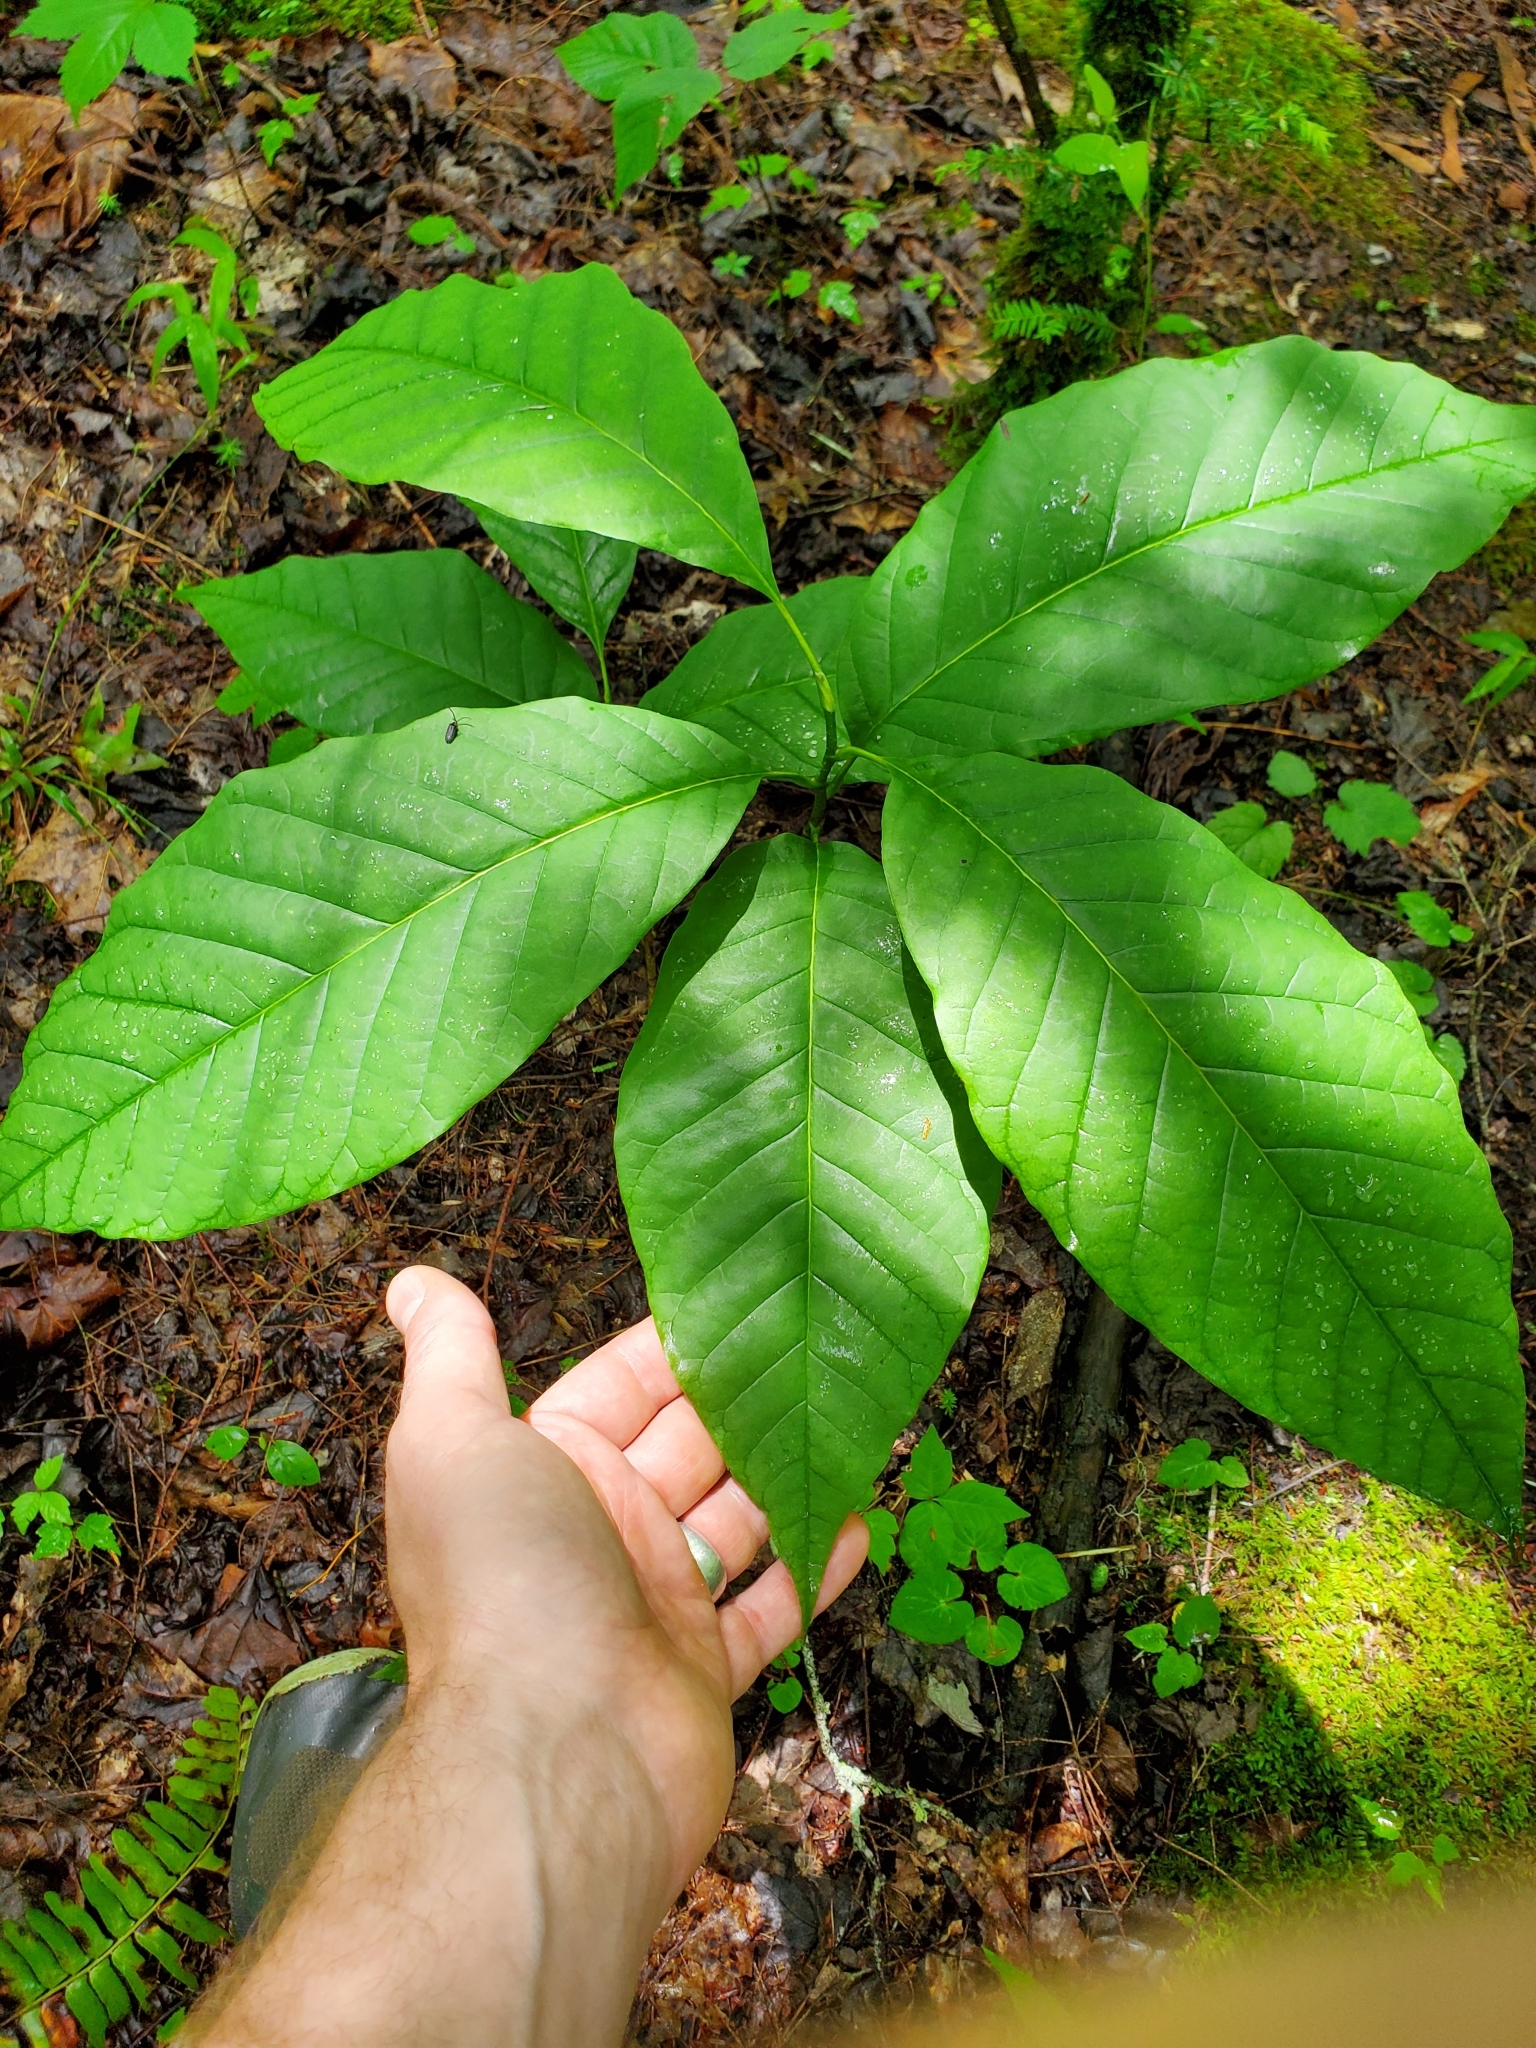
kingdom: Plantae
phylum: Tracheophyta
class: Magnoliopsida
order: Magnoliales
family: Magnoliaceae
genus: Magnolia
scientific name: Magnolia acuminata
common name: Cucumber magnolia
